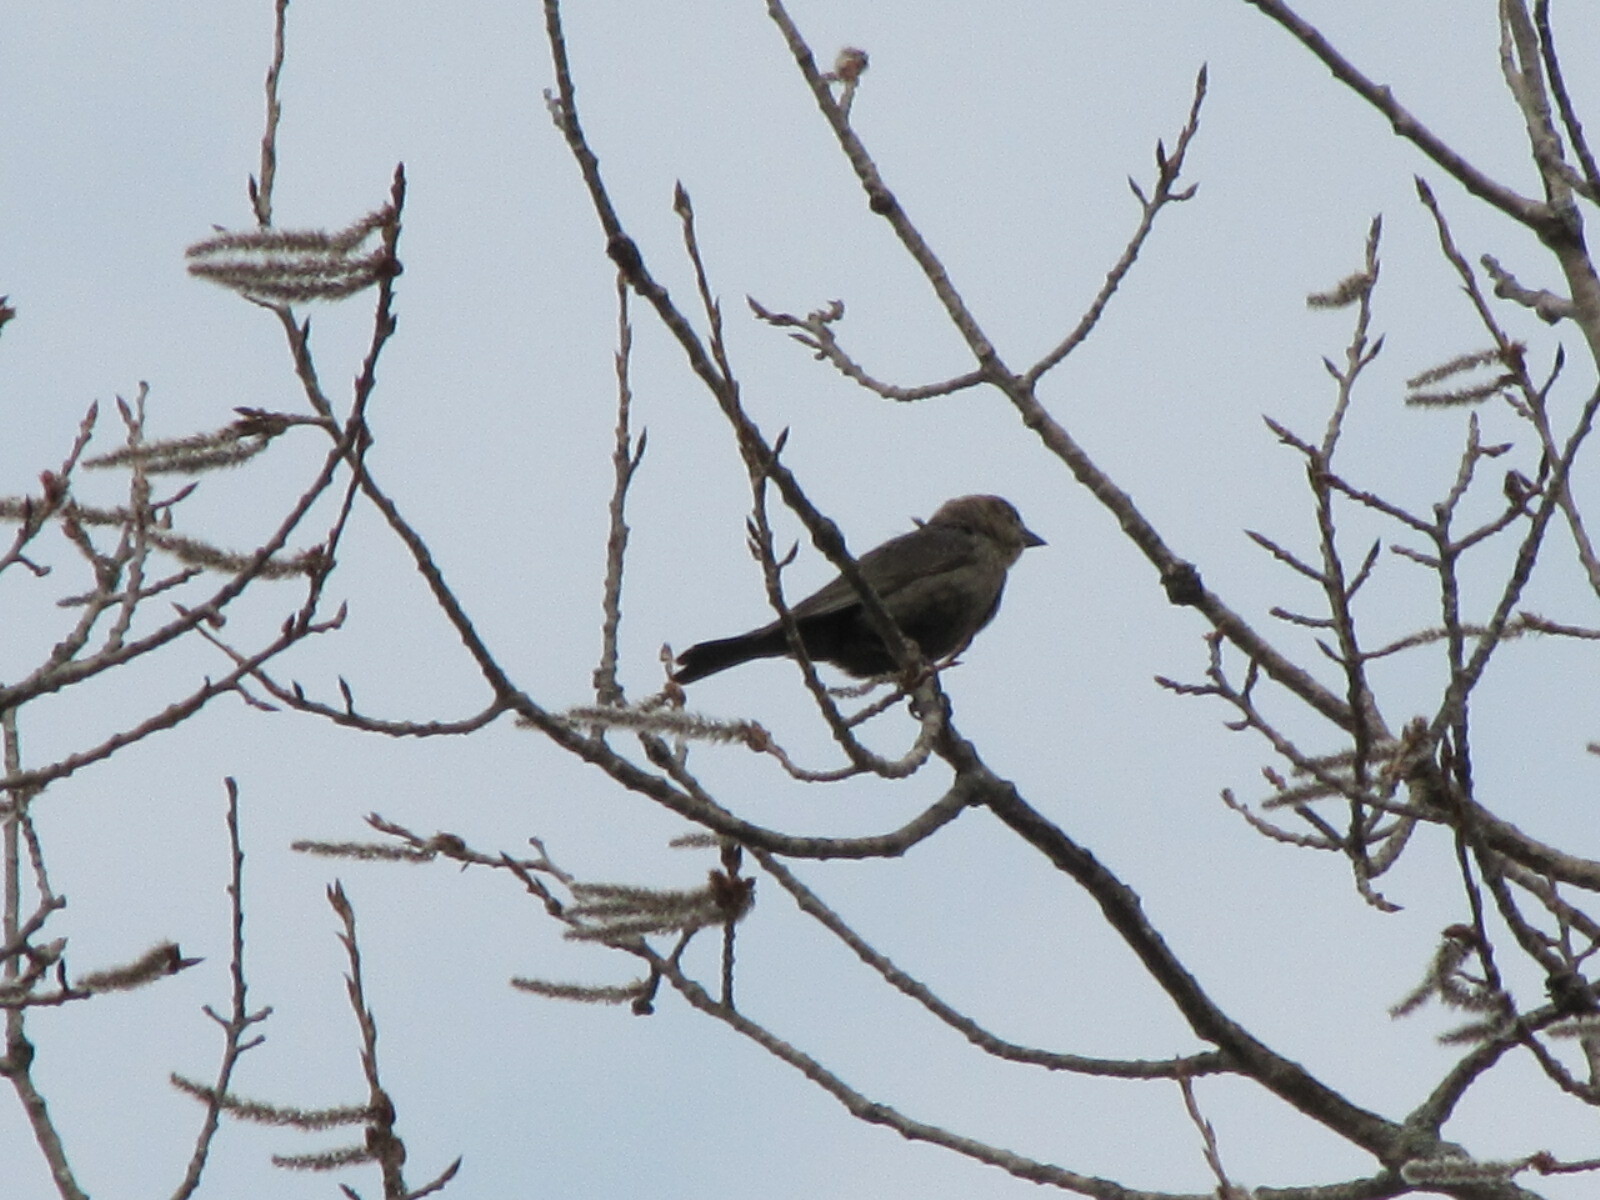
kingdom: Animalia
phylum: Chordata
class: Aves
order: Passeriformes
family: Icteridae
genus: Molothrus
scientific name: Molothrus ater
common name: Brown-headed cowbird
